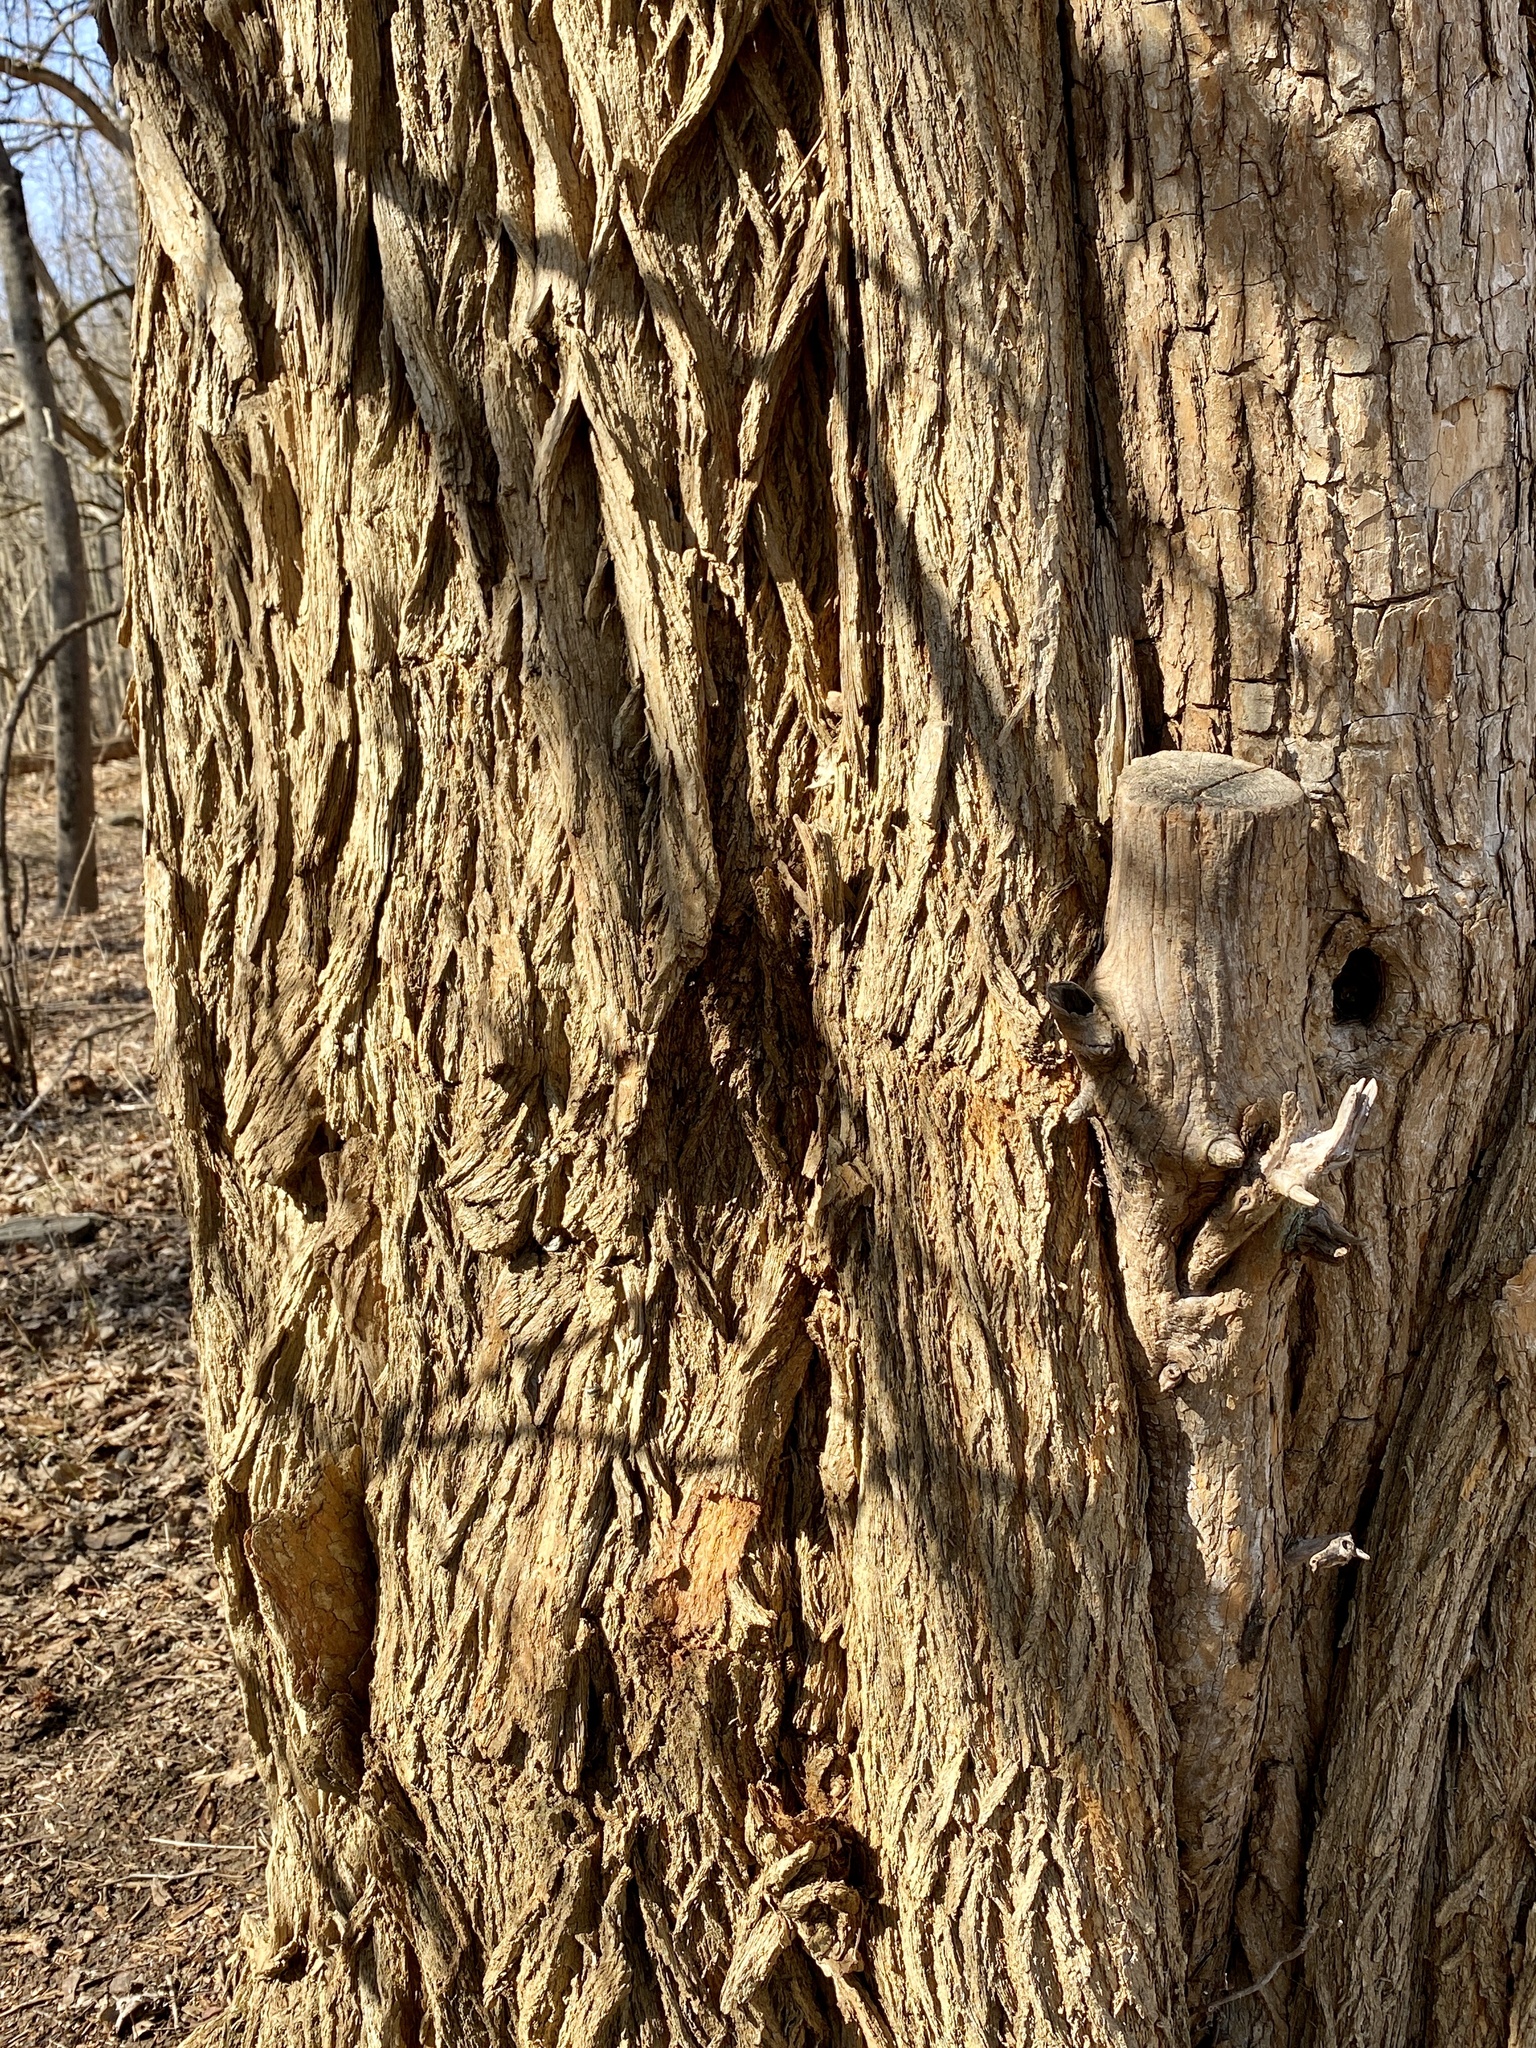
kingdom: Plantae
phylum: Tracheophyta
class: Magnoliopsida
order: Rosales
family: Moraceae
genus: Maclura
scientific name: Maclura pomifera
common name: Osage-orange
